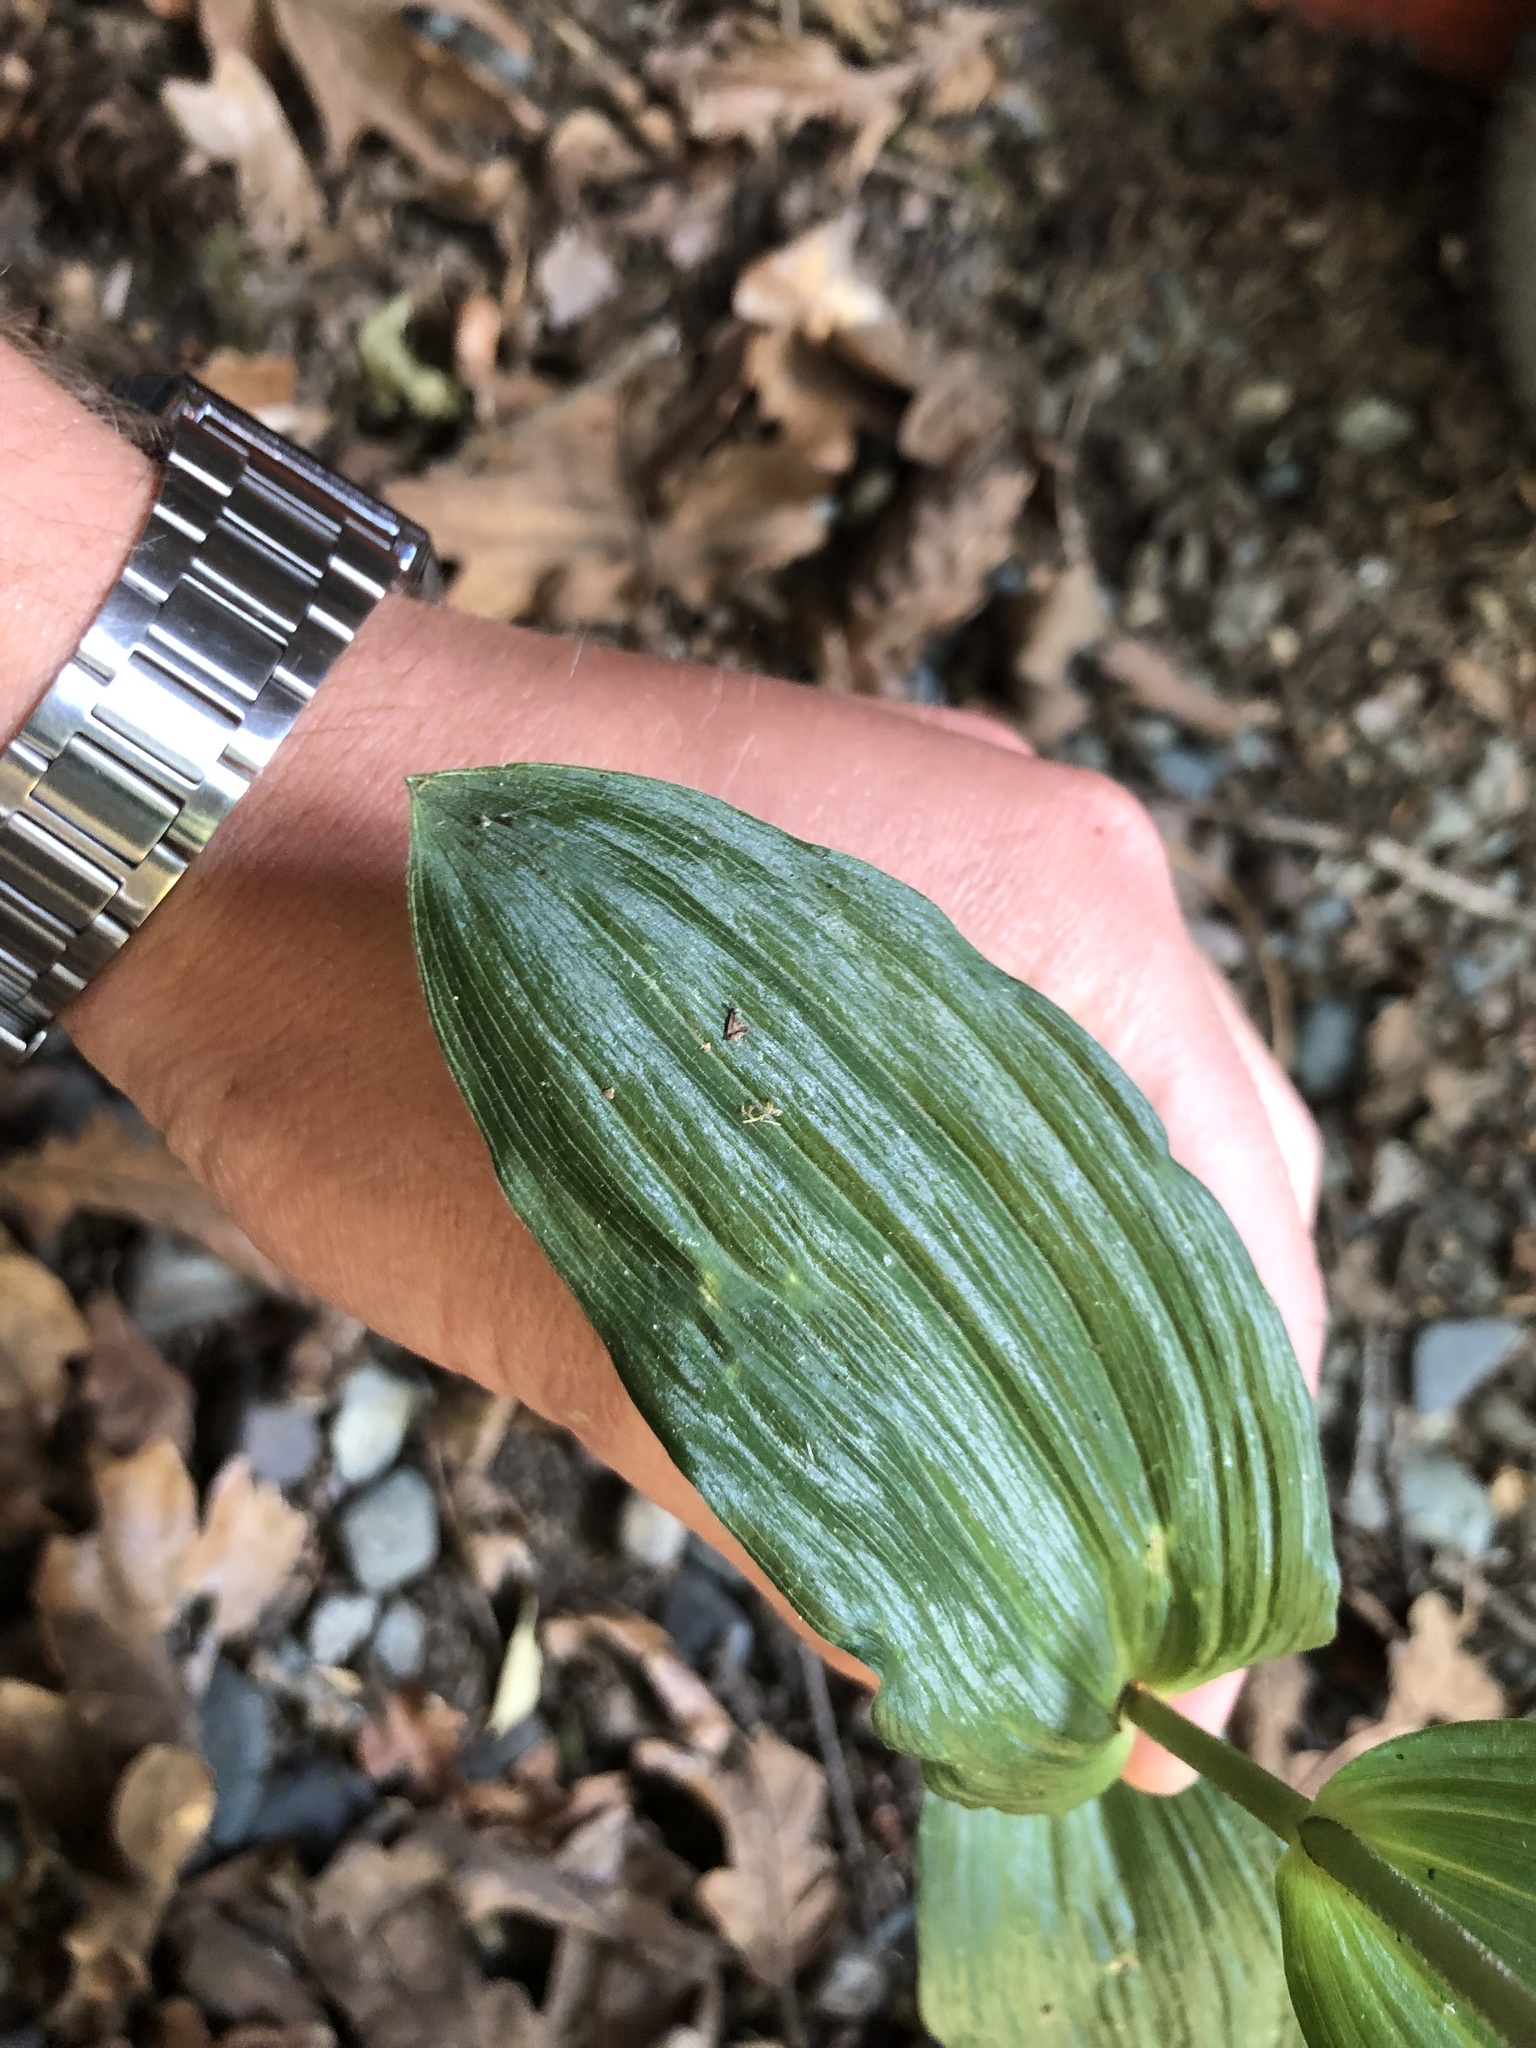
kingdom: Plantae
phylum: Tracheophyta
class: Liliopsida
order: Asparagales
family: Orchidaceae
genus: Epipactis
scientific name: Epipactis helleborine
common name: Broad-leaved helleborine
